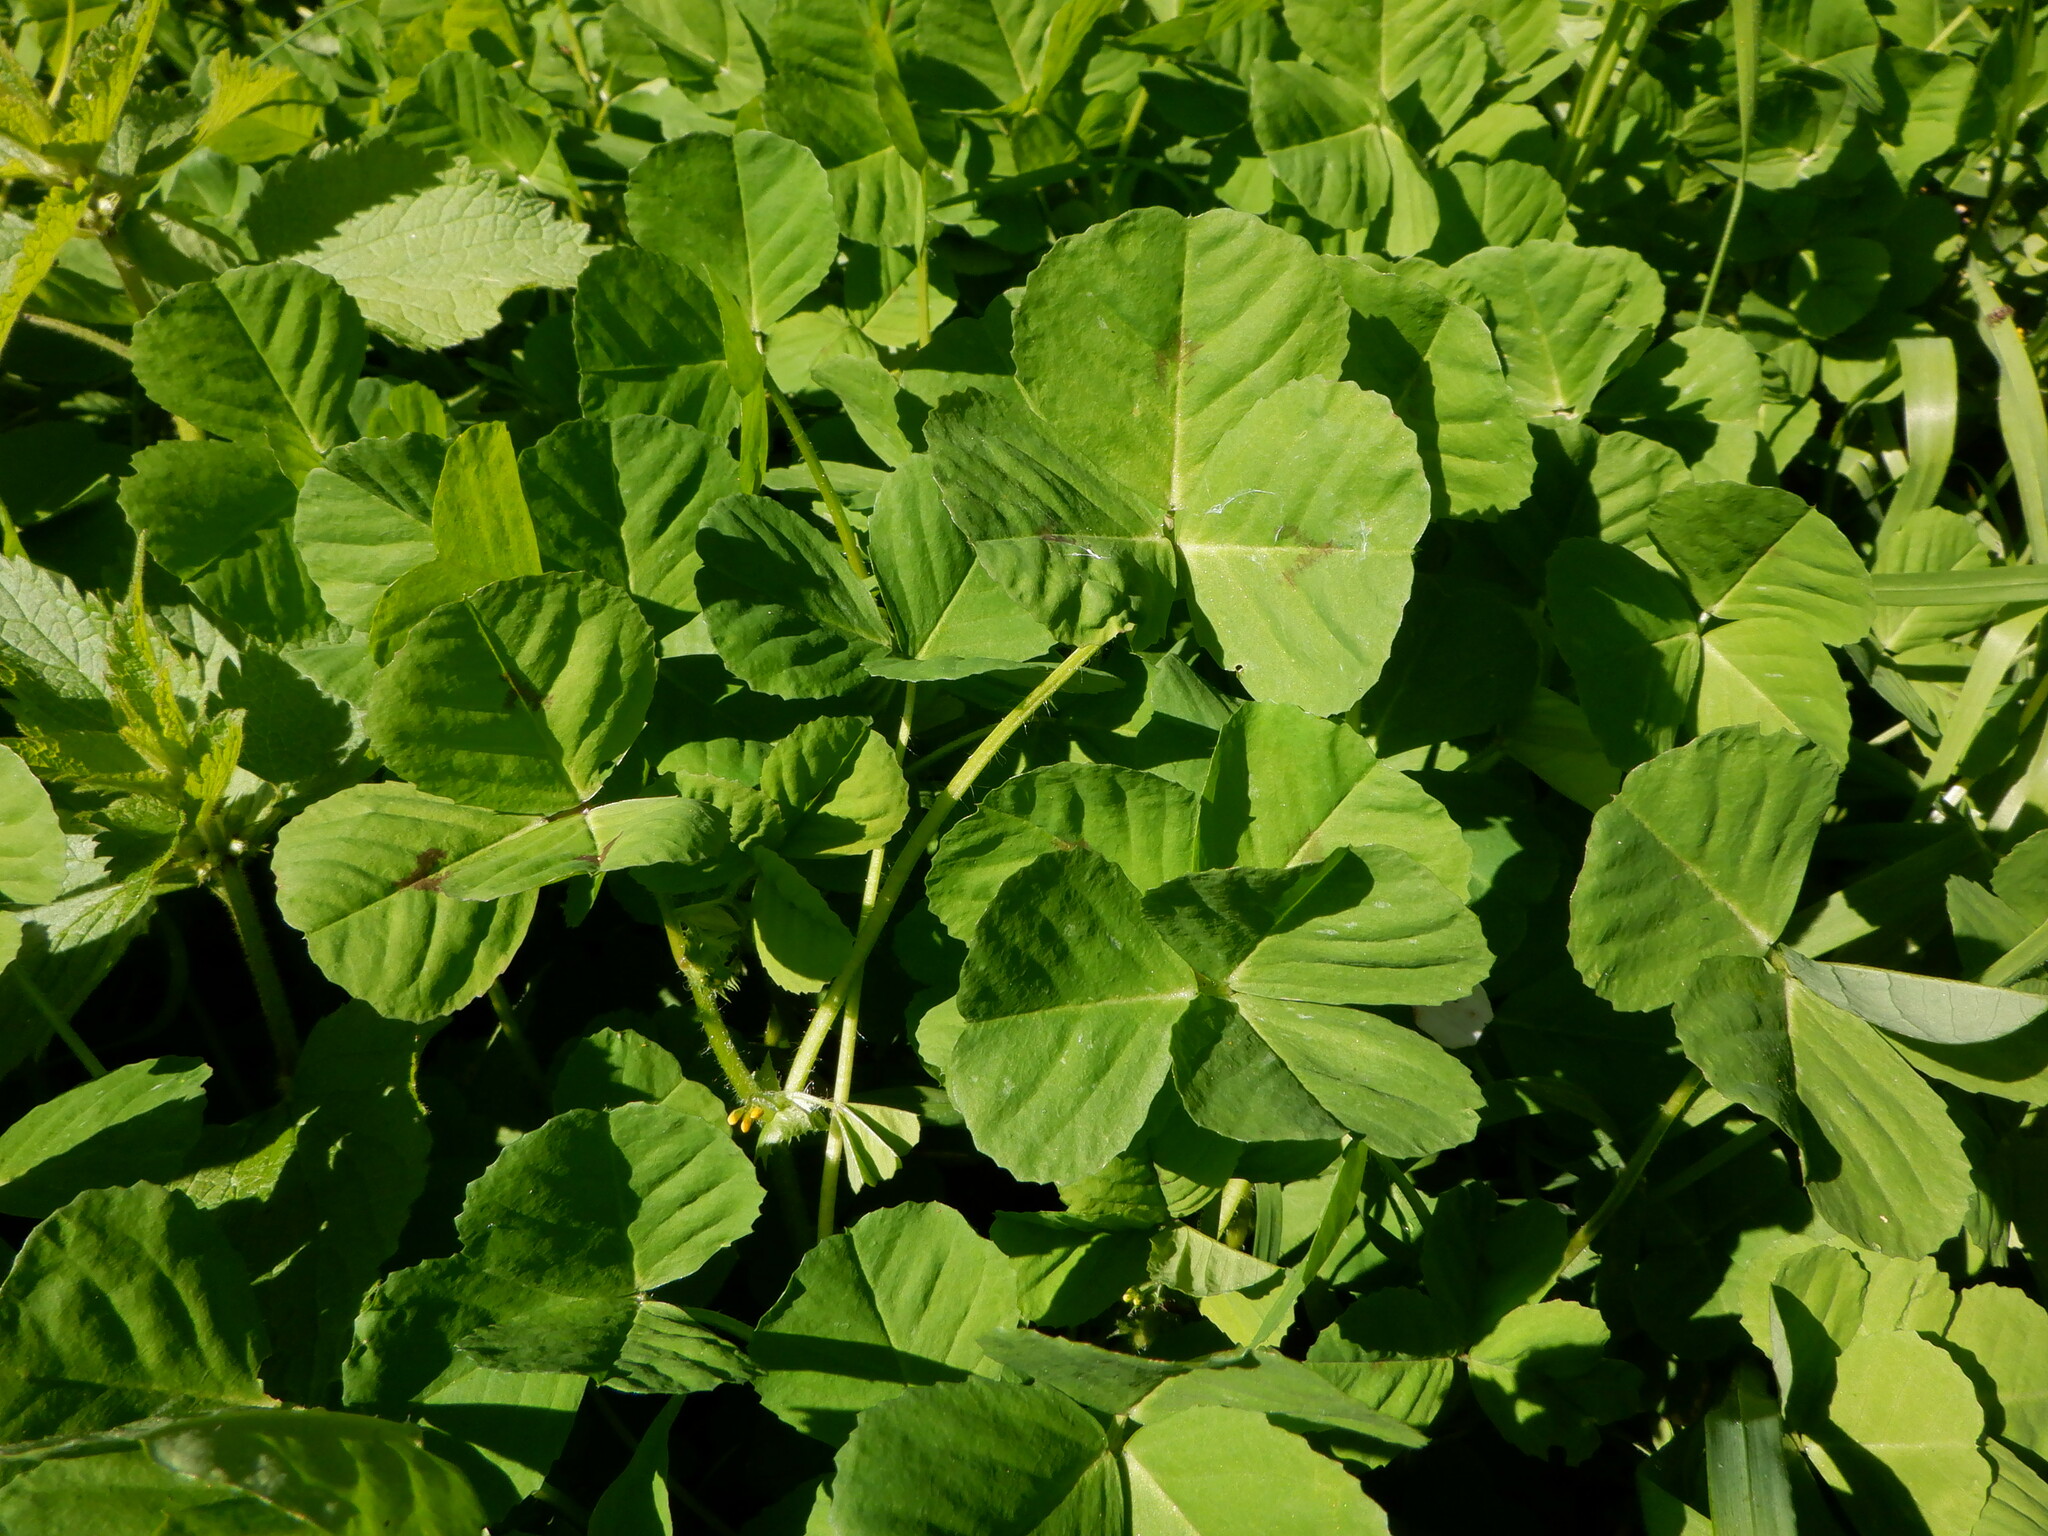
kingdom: Plantae
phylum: Tracheophyta
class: Magnoliopsida
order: Fabales
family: Fabaceae
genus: Medicago
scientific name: Medicago arabica
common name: Spotted medick
